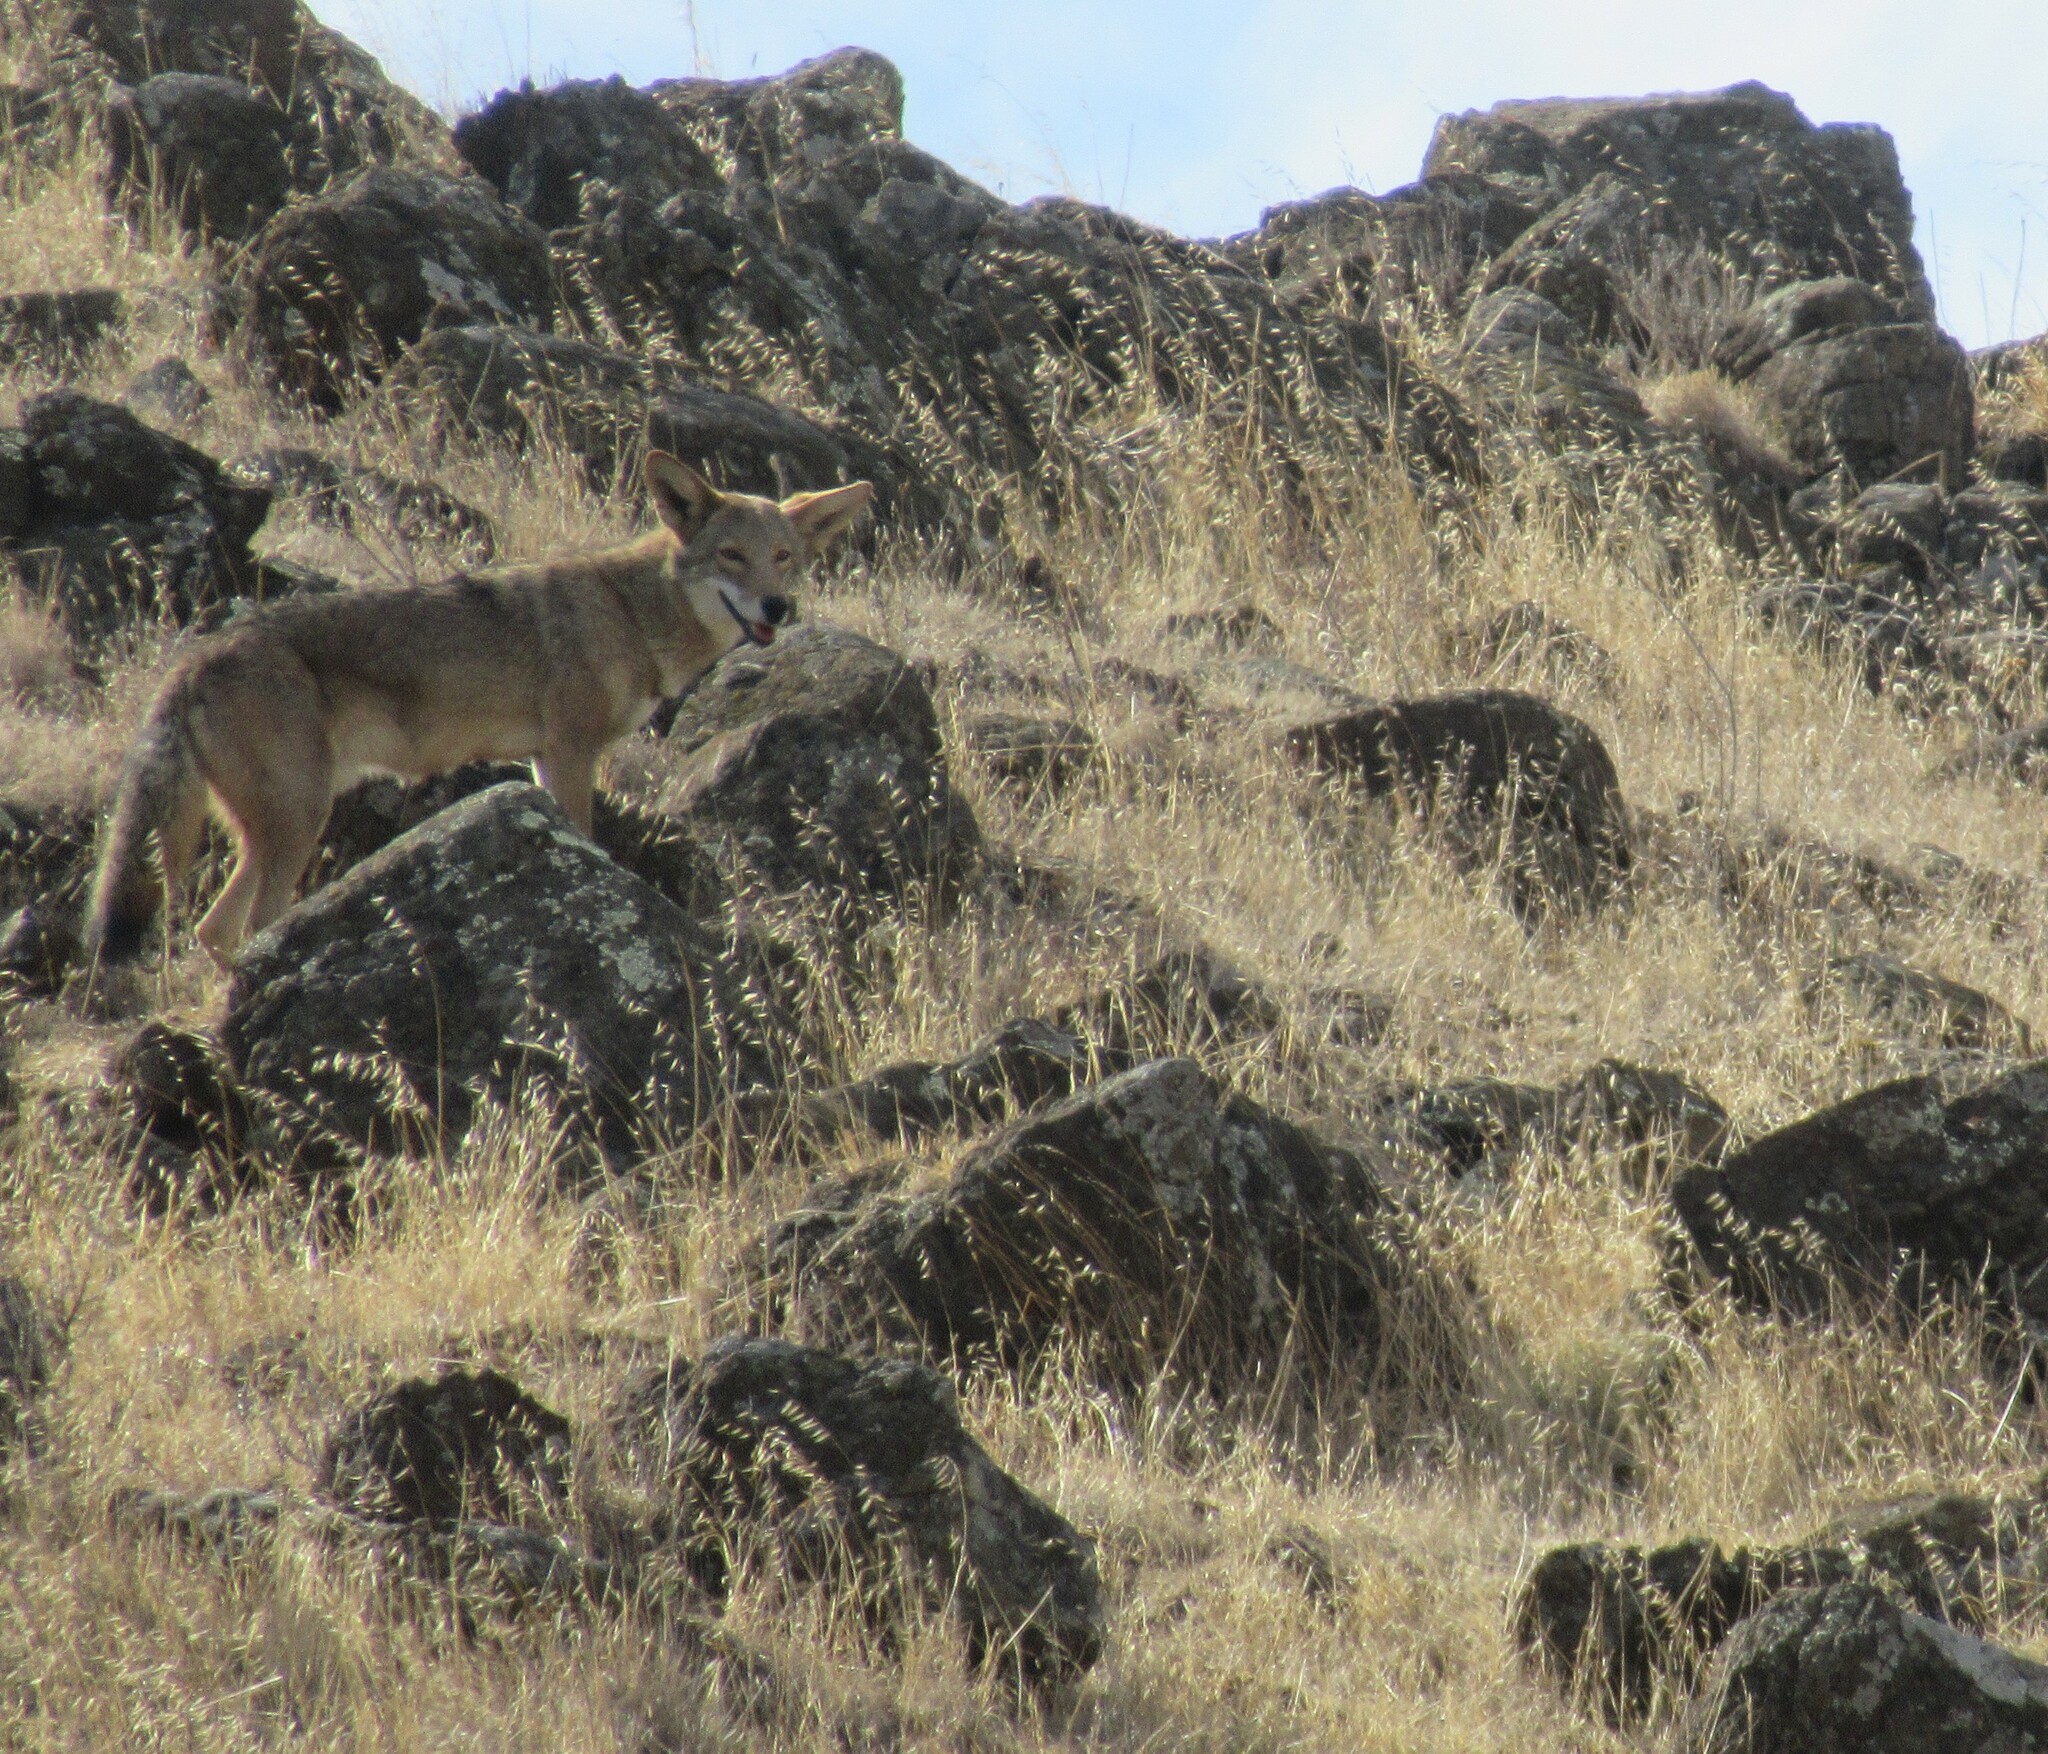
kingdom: Animalia
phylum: Chordata
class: Mammalia
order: Carnivora
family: Canidae
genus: Canis
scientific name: Canis latrans
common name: Coyote
